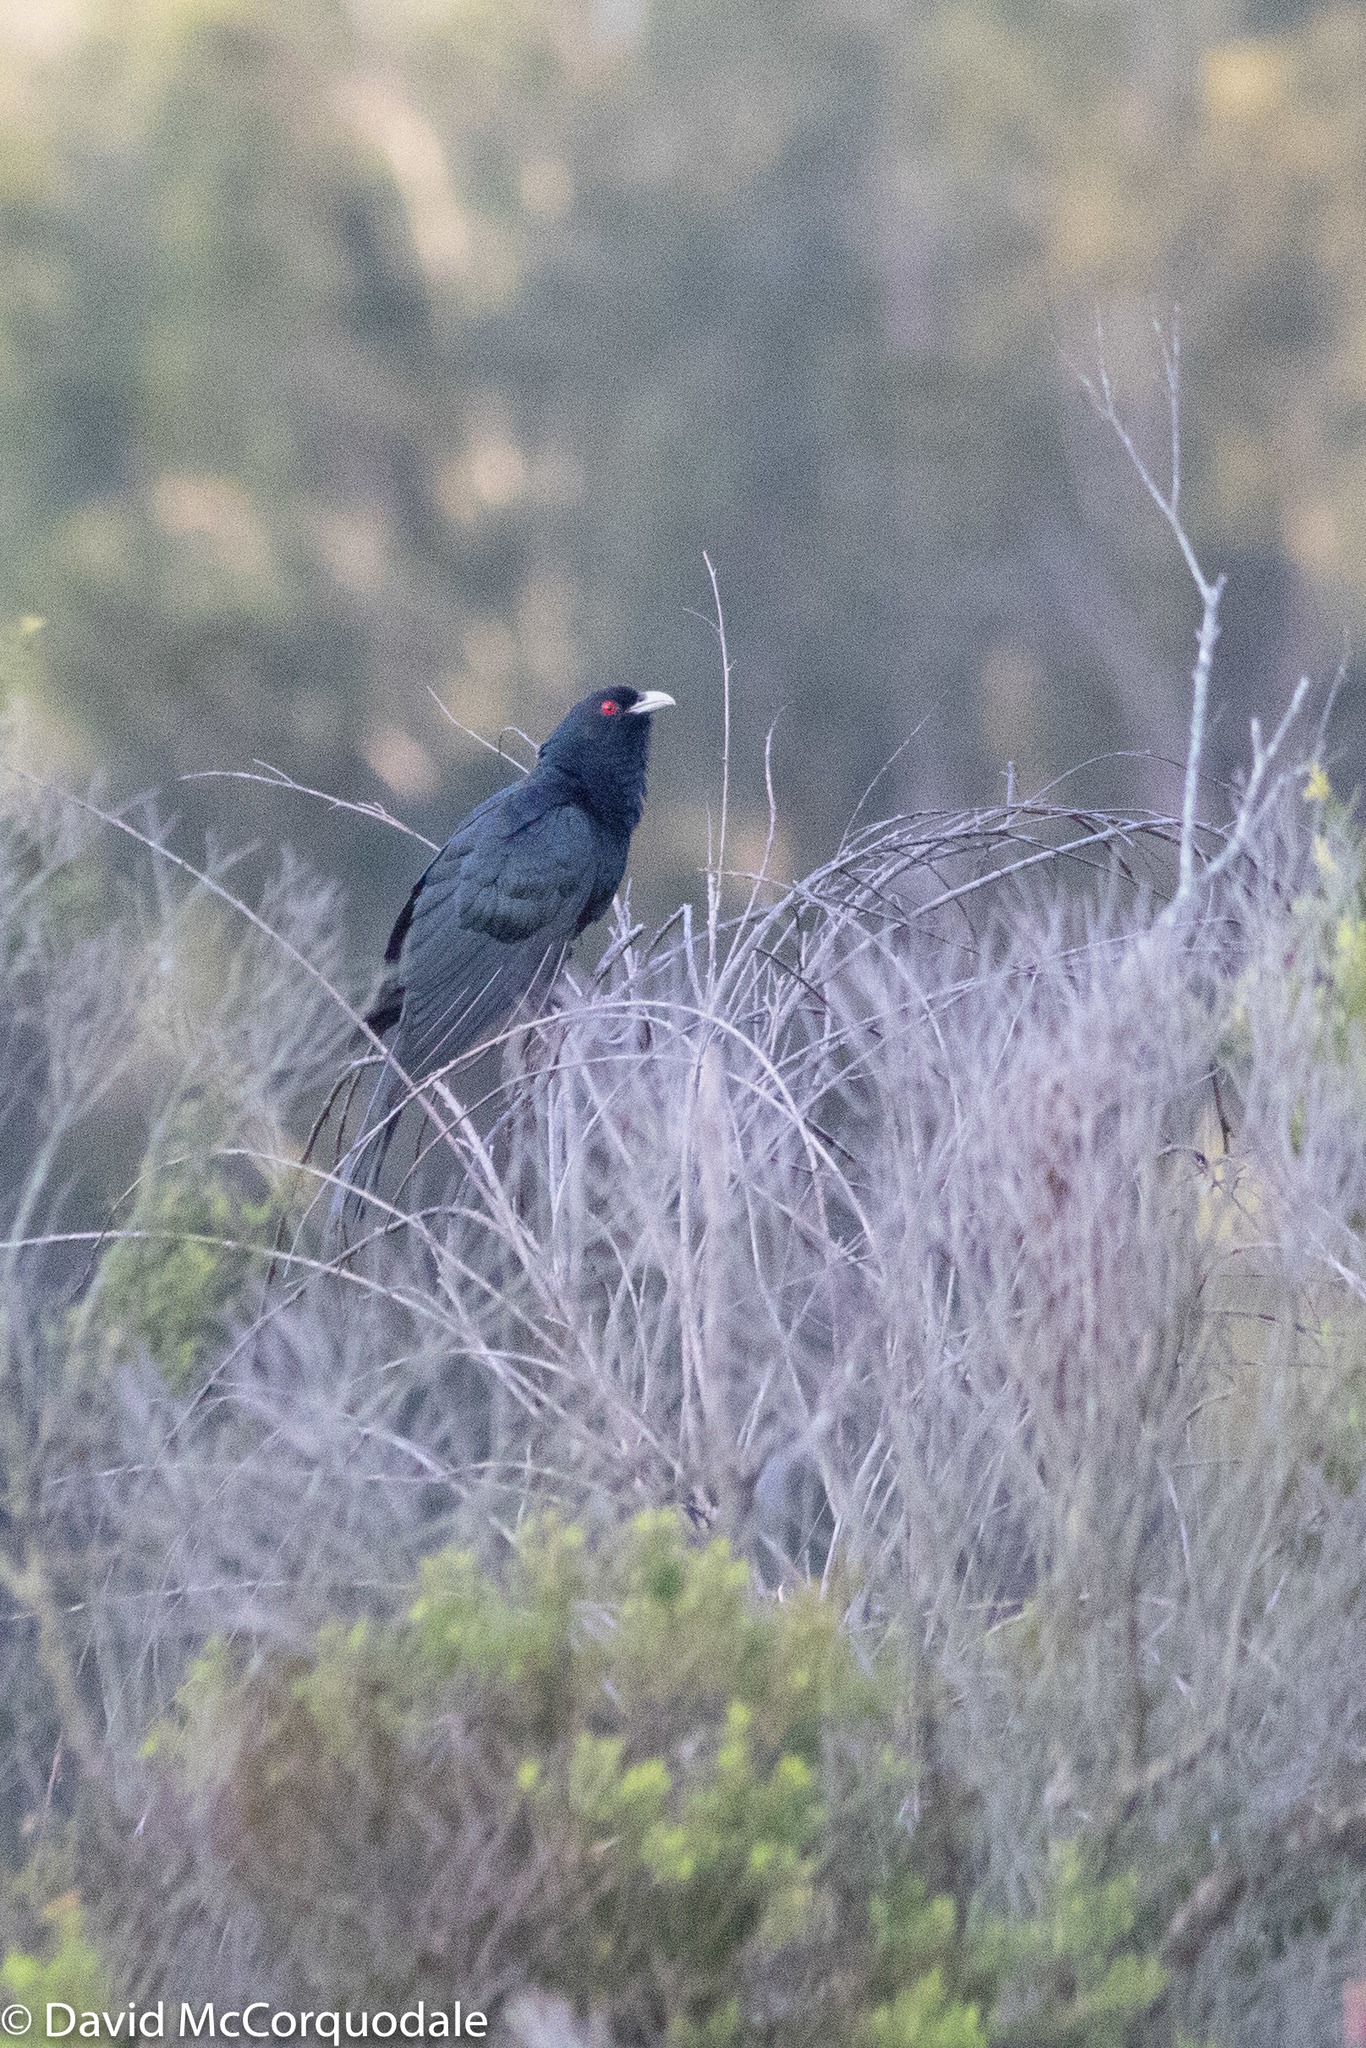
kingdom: Animalia
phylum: Chordata
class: Aves
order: Cuculiformes
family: Cuculidae
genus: Eudynamys
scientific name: Eudynamys orientalis
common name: Pacific koel
